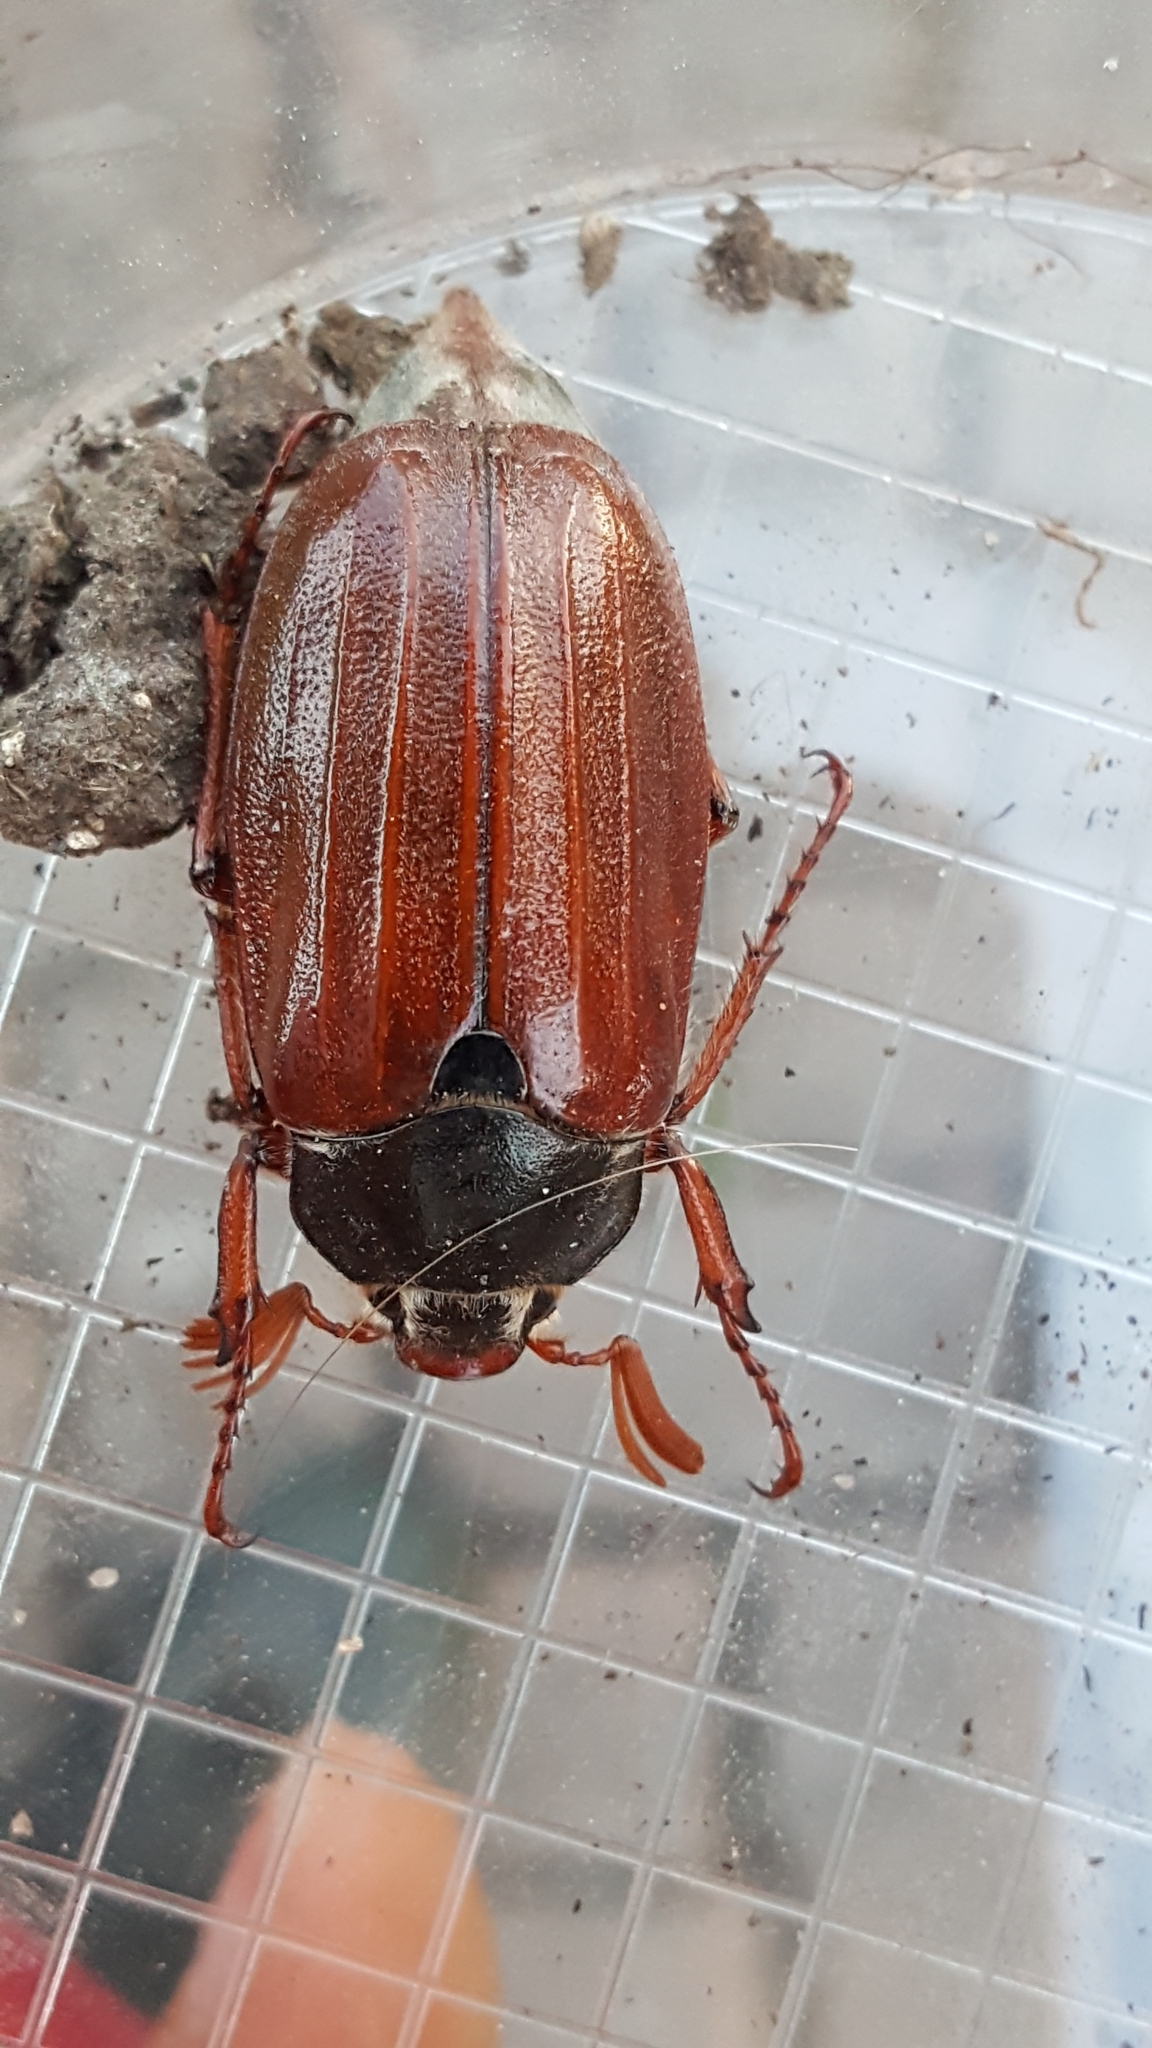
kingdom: Animalia
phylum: Arthropoda
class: Insecta
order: Coleoptera
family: Scarabaeidae
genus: Melolontha
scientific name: Melolontha melolontha
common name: Cockchafer maybeetle
